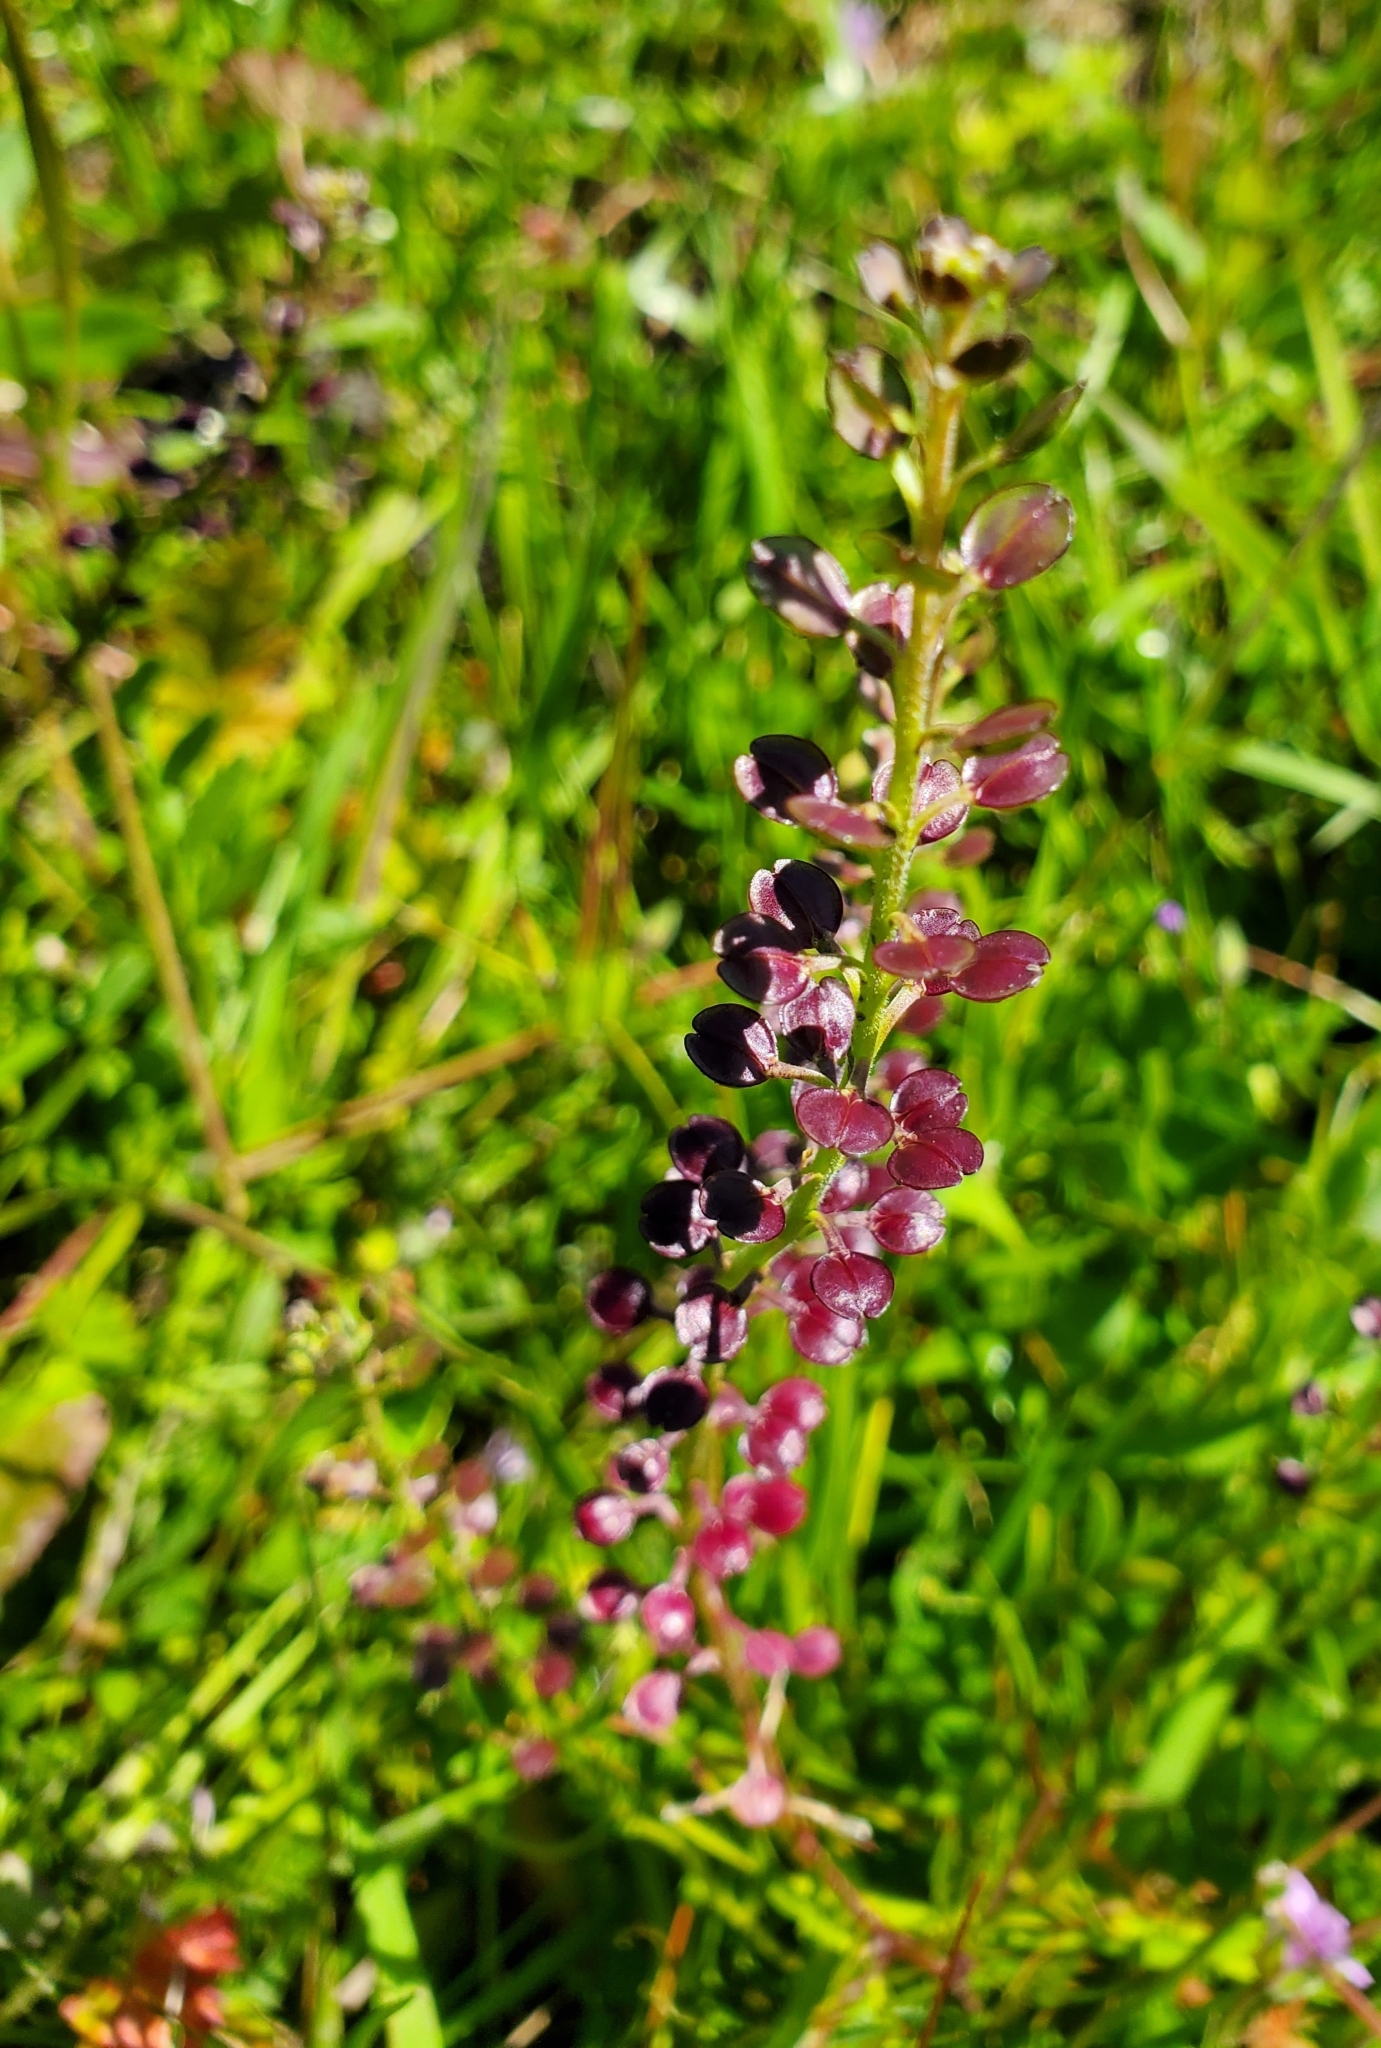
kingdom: Plantae
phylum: Tracheophyta
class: Magnoliopsida
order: Brassicales
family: Brassicaceae
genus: Lepidium
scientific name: Lepidium nitidum
